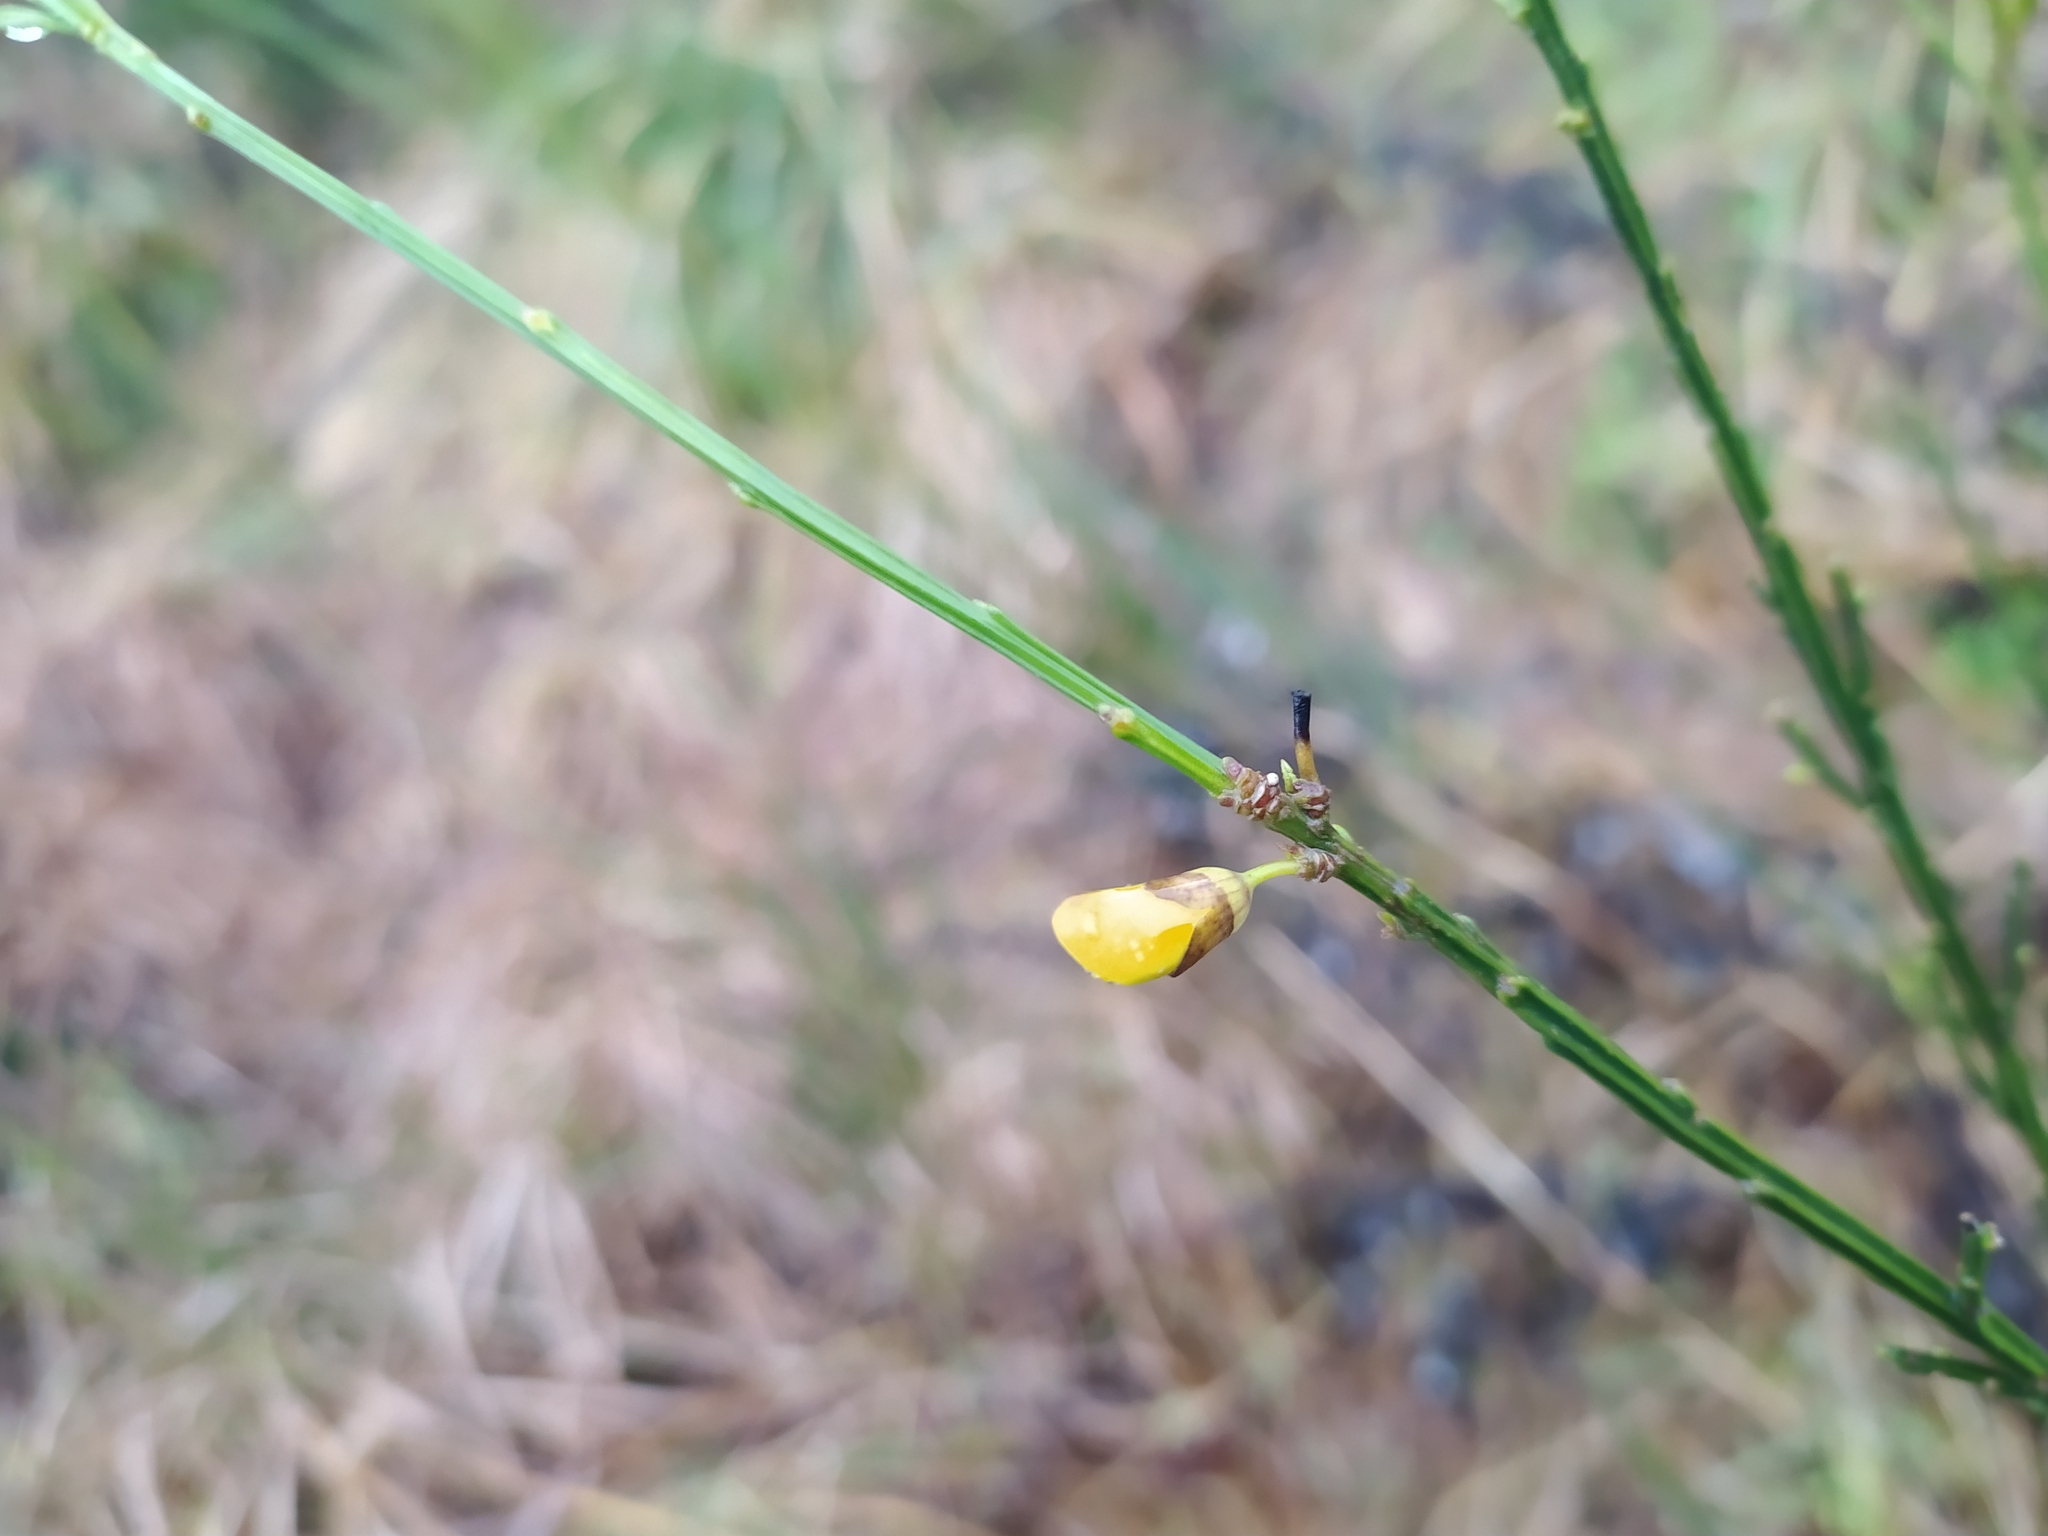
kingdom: Plantae
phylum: Tracheophyta
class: Magnoliopsida
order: Fabales
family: Fabaceae
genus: Cytisus
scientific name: Cytisus scoparius
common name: Scotch broom
